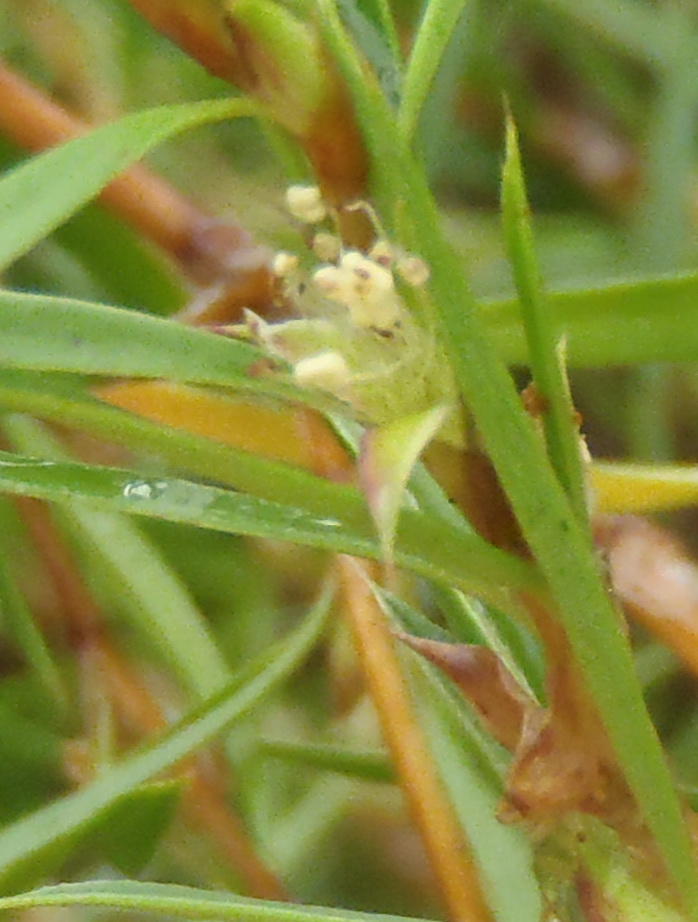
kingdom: Plantae
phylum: Tracheophyta
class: Magnoliopsida
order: Rosales
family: Rosaceae
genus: Cliffortia
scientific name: Cliffortia strobilifera
